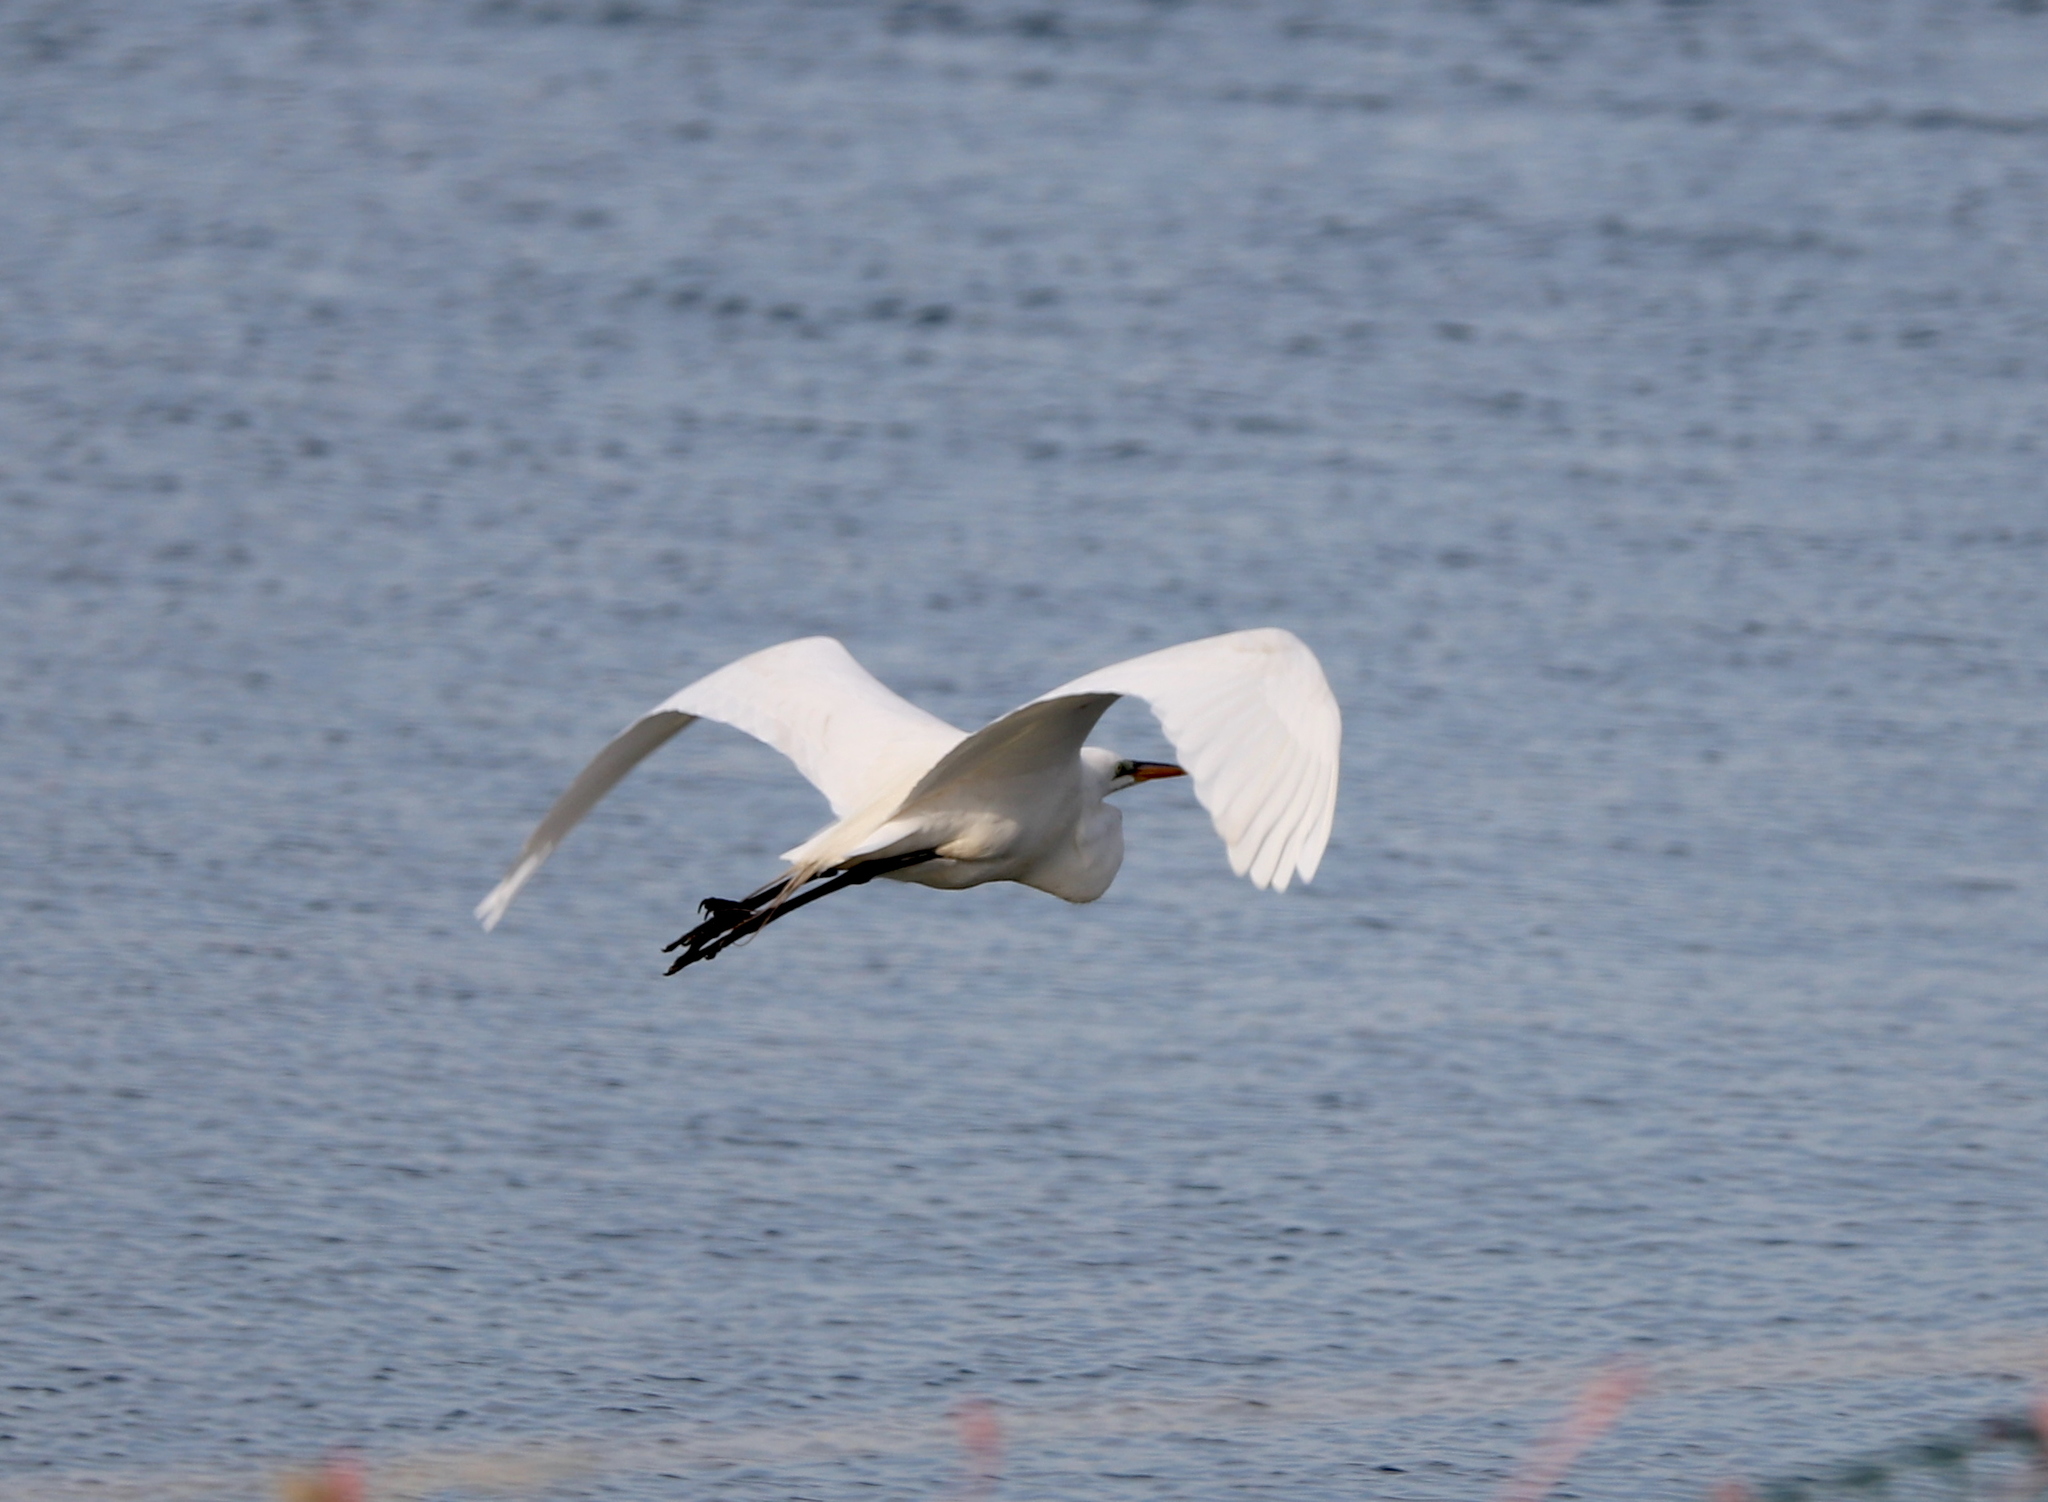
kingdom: Animalia
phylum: Chordata
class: Aves
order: Pelecaniformes
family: Ardeidae
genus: Ardea
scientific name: Ardea alba
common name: Great egret
